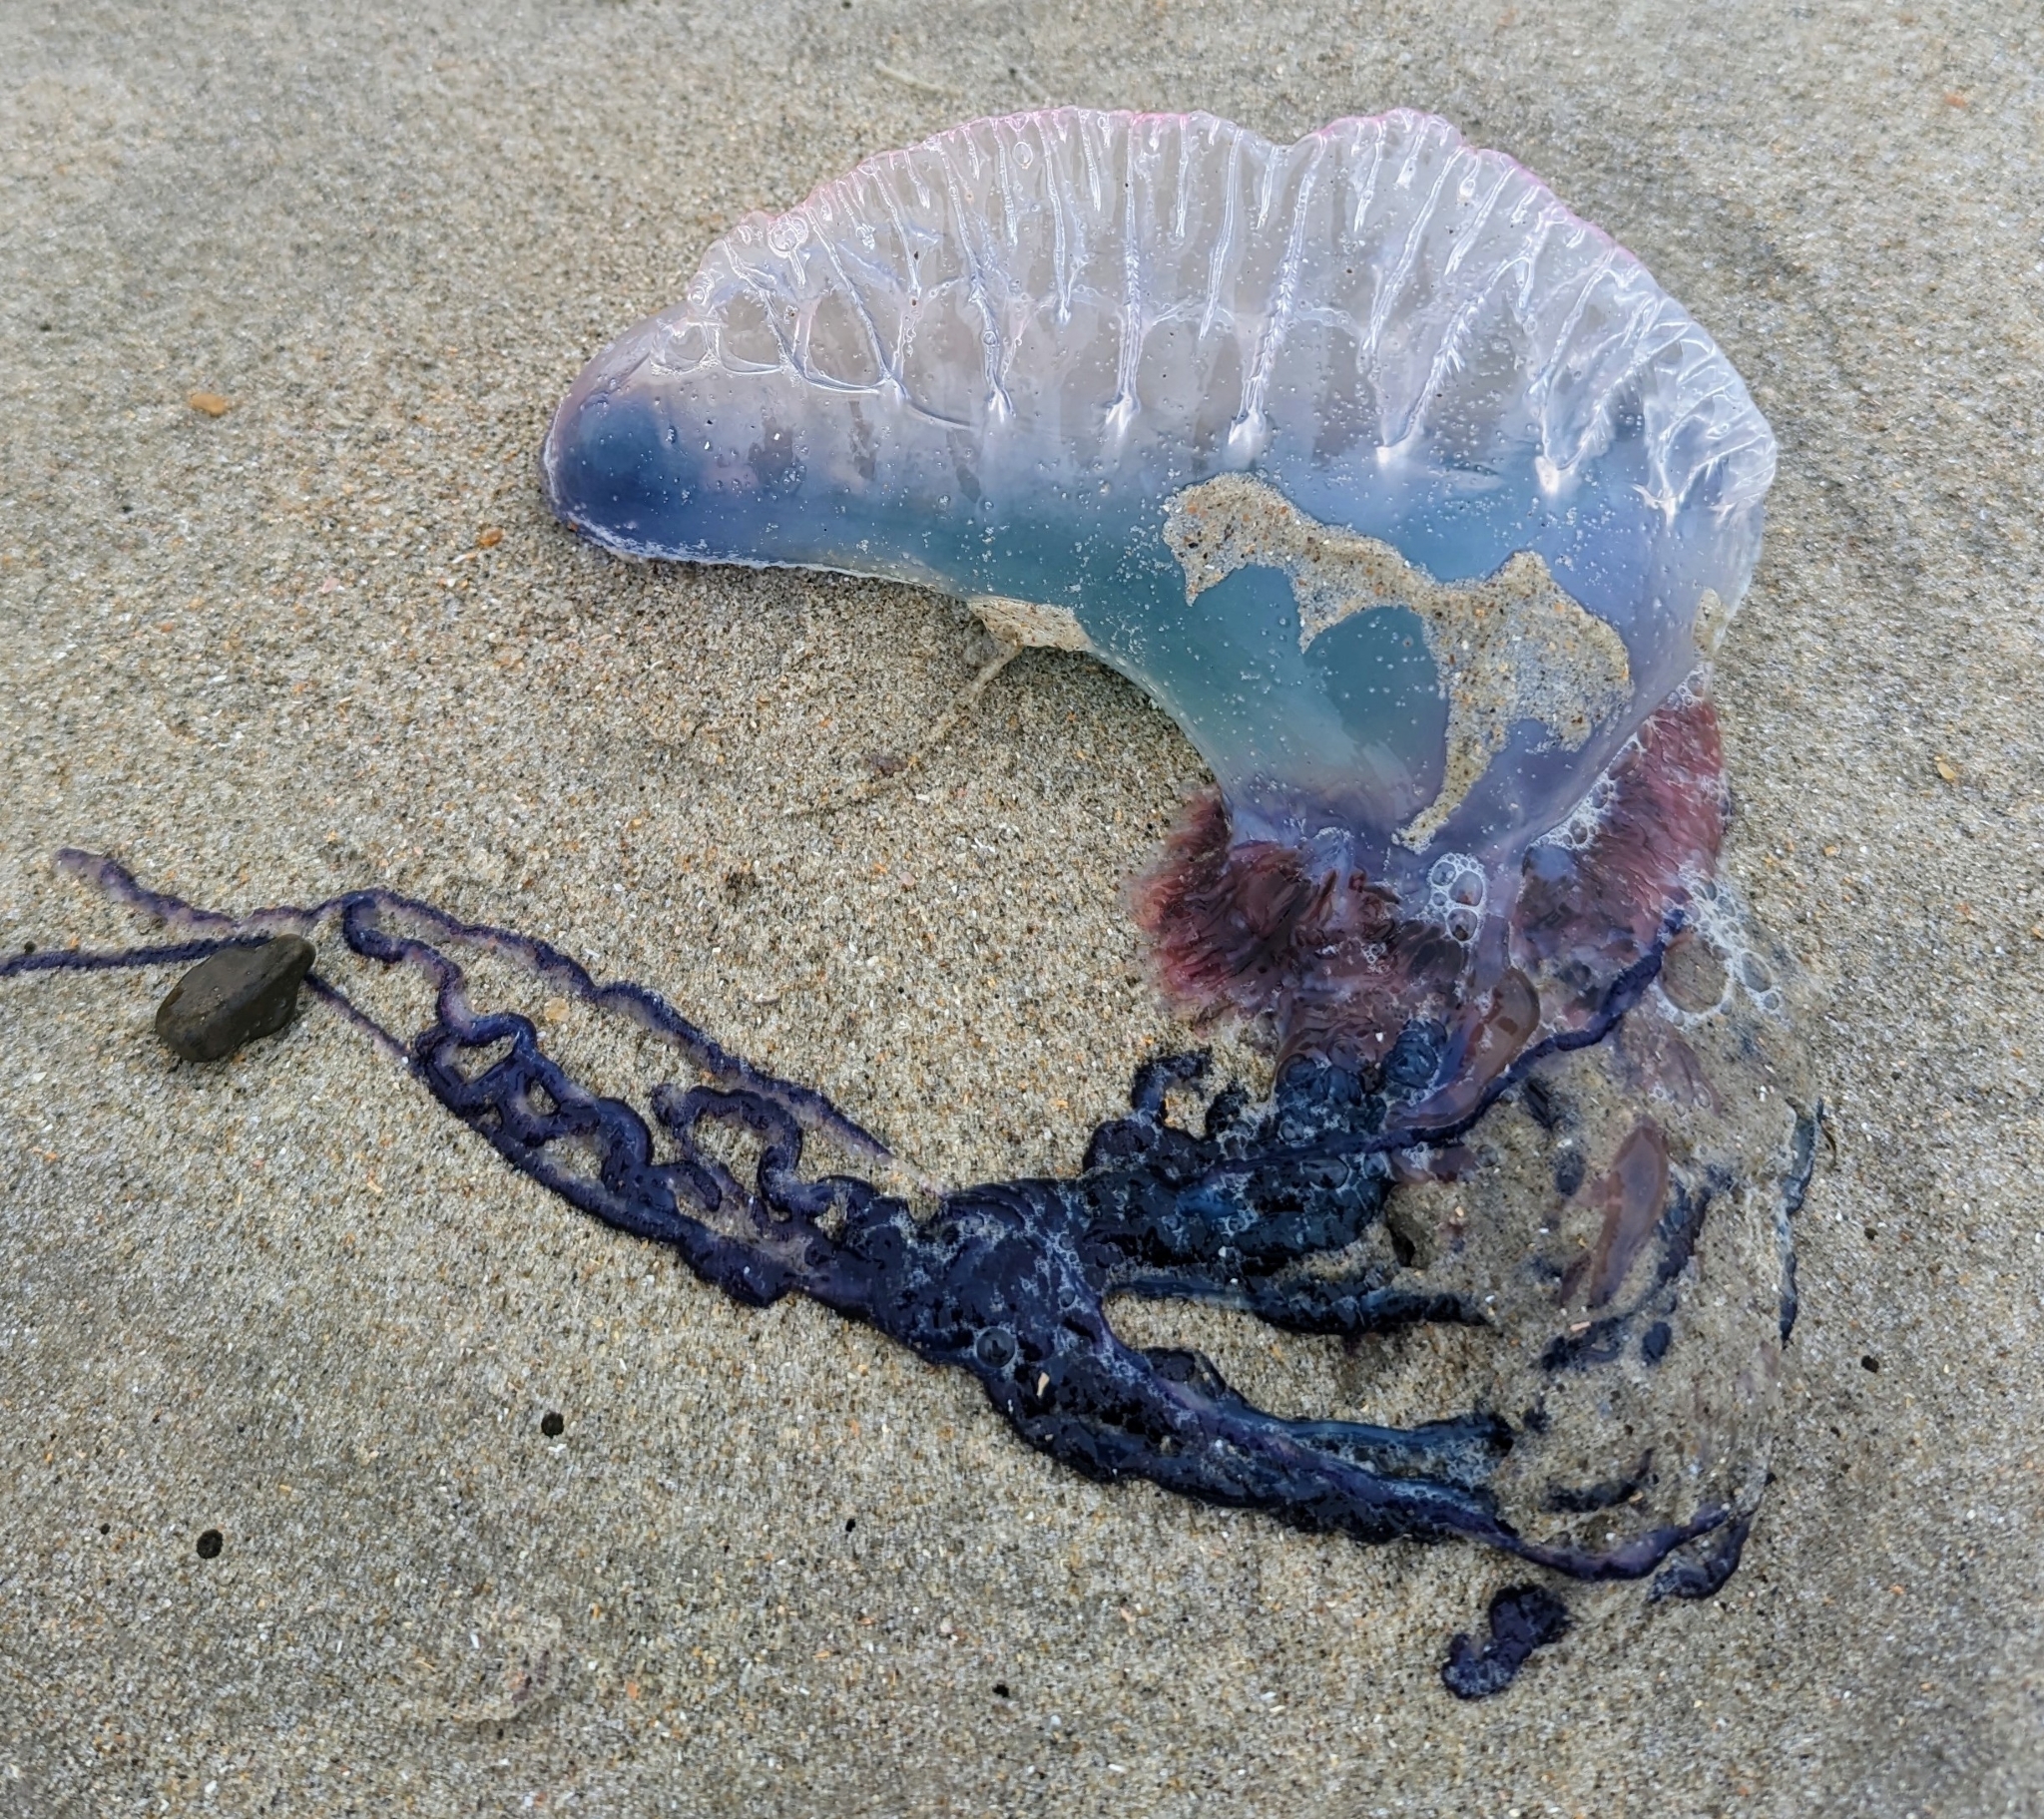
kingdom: Animalia
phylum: Cnidaria
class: Hydrozoa
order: Siphonophorae
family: Physaliidae
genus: Physalia
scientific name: Physalia physalis
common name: Portuguese man-of-war
